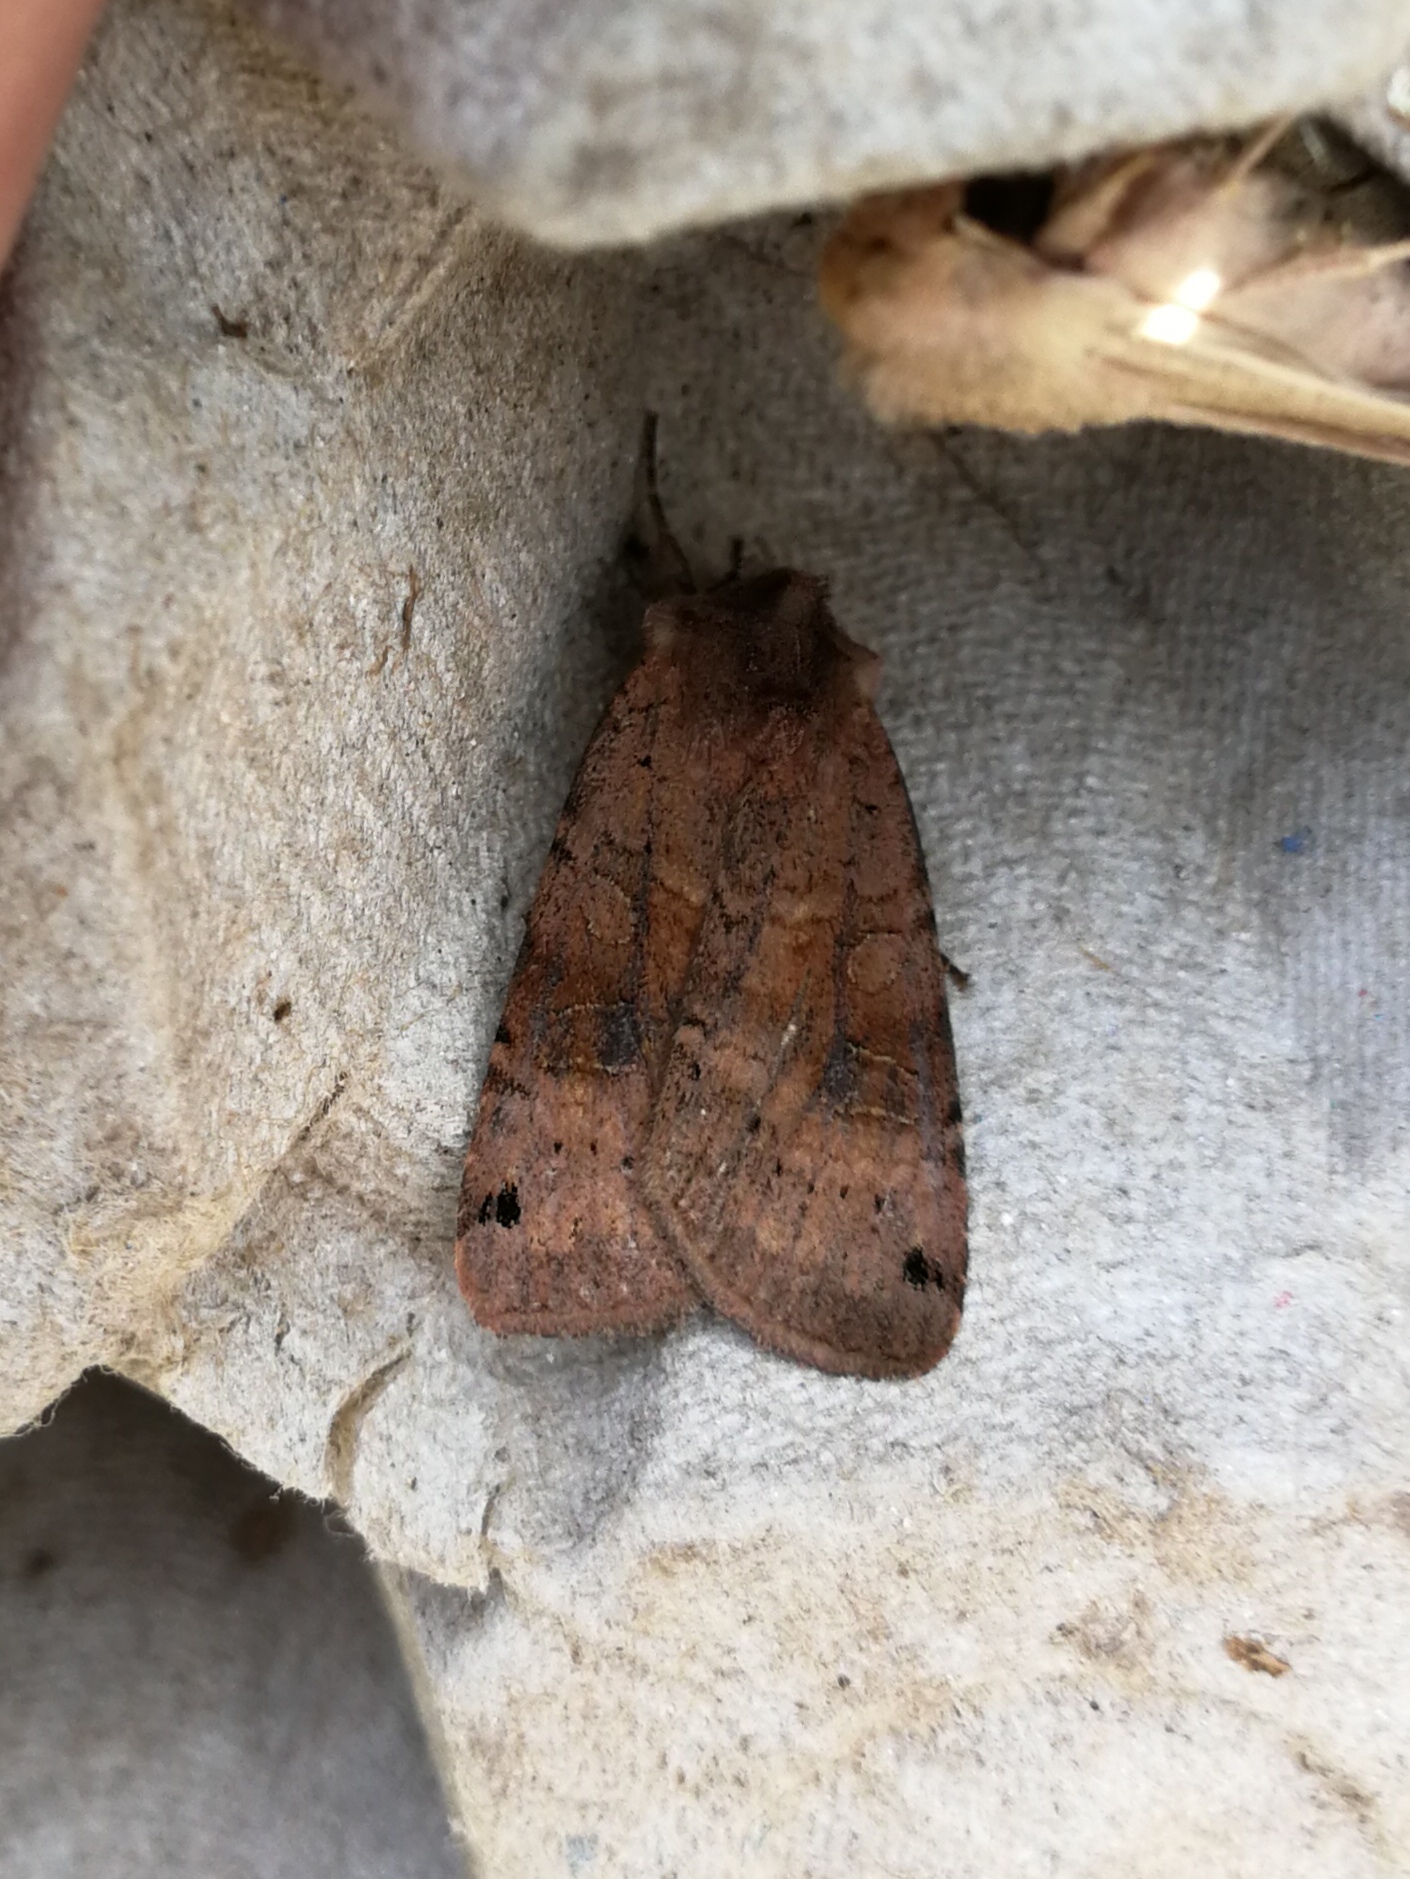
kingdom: Animalia
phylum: Arthropoda
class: Insecta
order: Lepidoptera
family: Noctuidae
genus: Xestia
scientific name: Xestia baja
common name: Dotted clay
